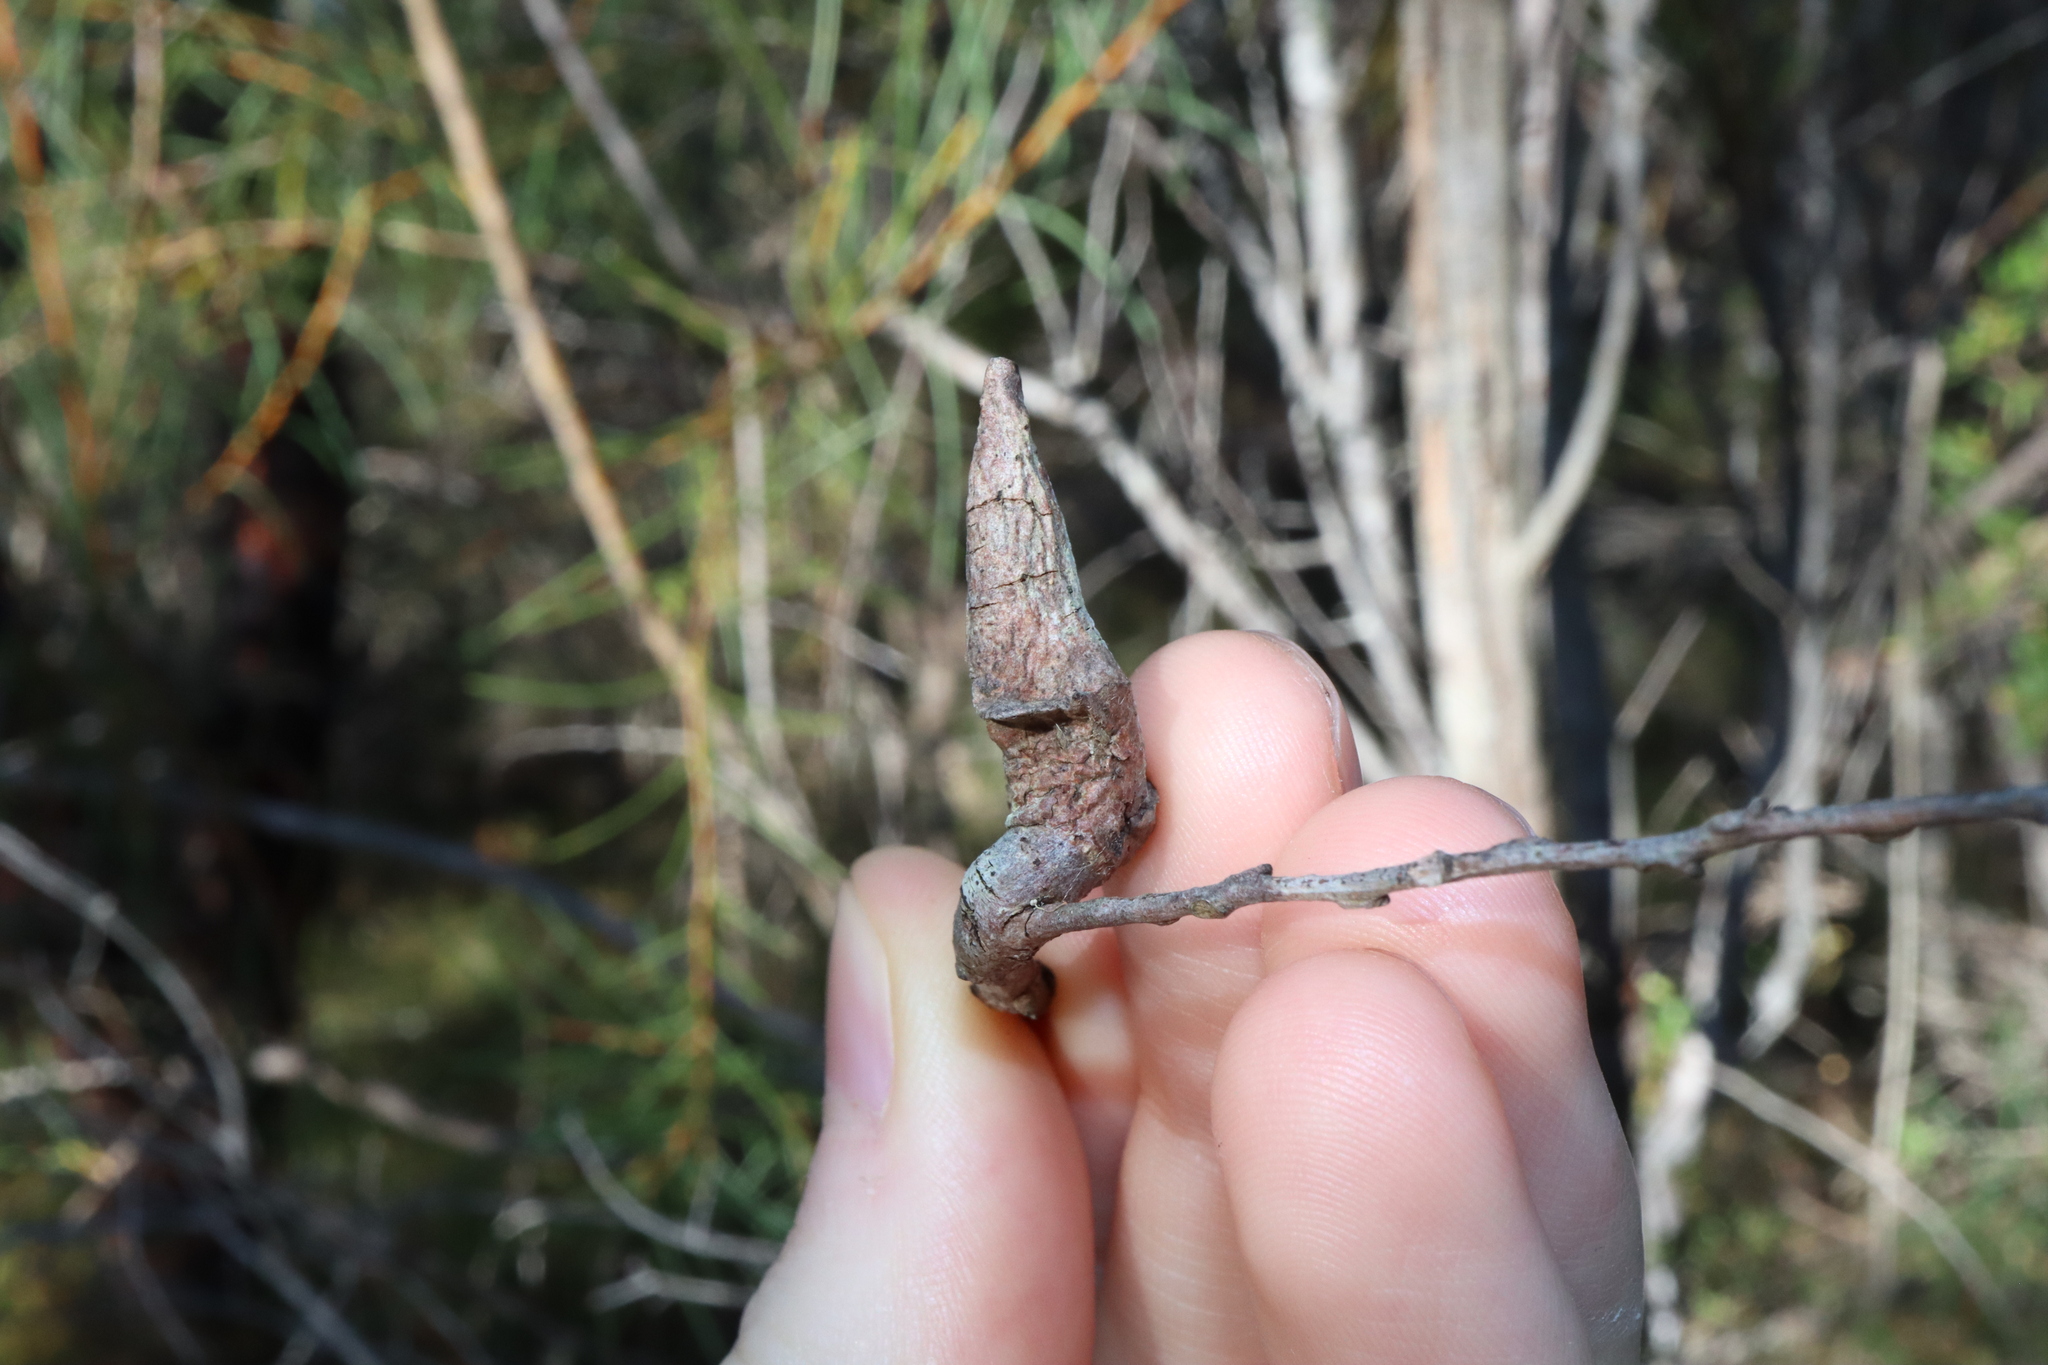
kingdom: Plantae
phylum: Tracheophyta
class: Magnoliopsida
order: Proteales
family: Proteaceae
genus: Hakea
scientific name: Hakea teretifolia
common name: Dagger hakea
